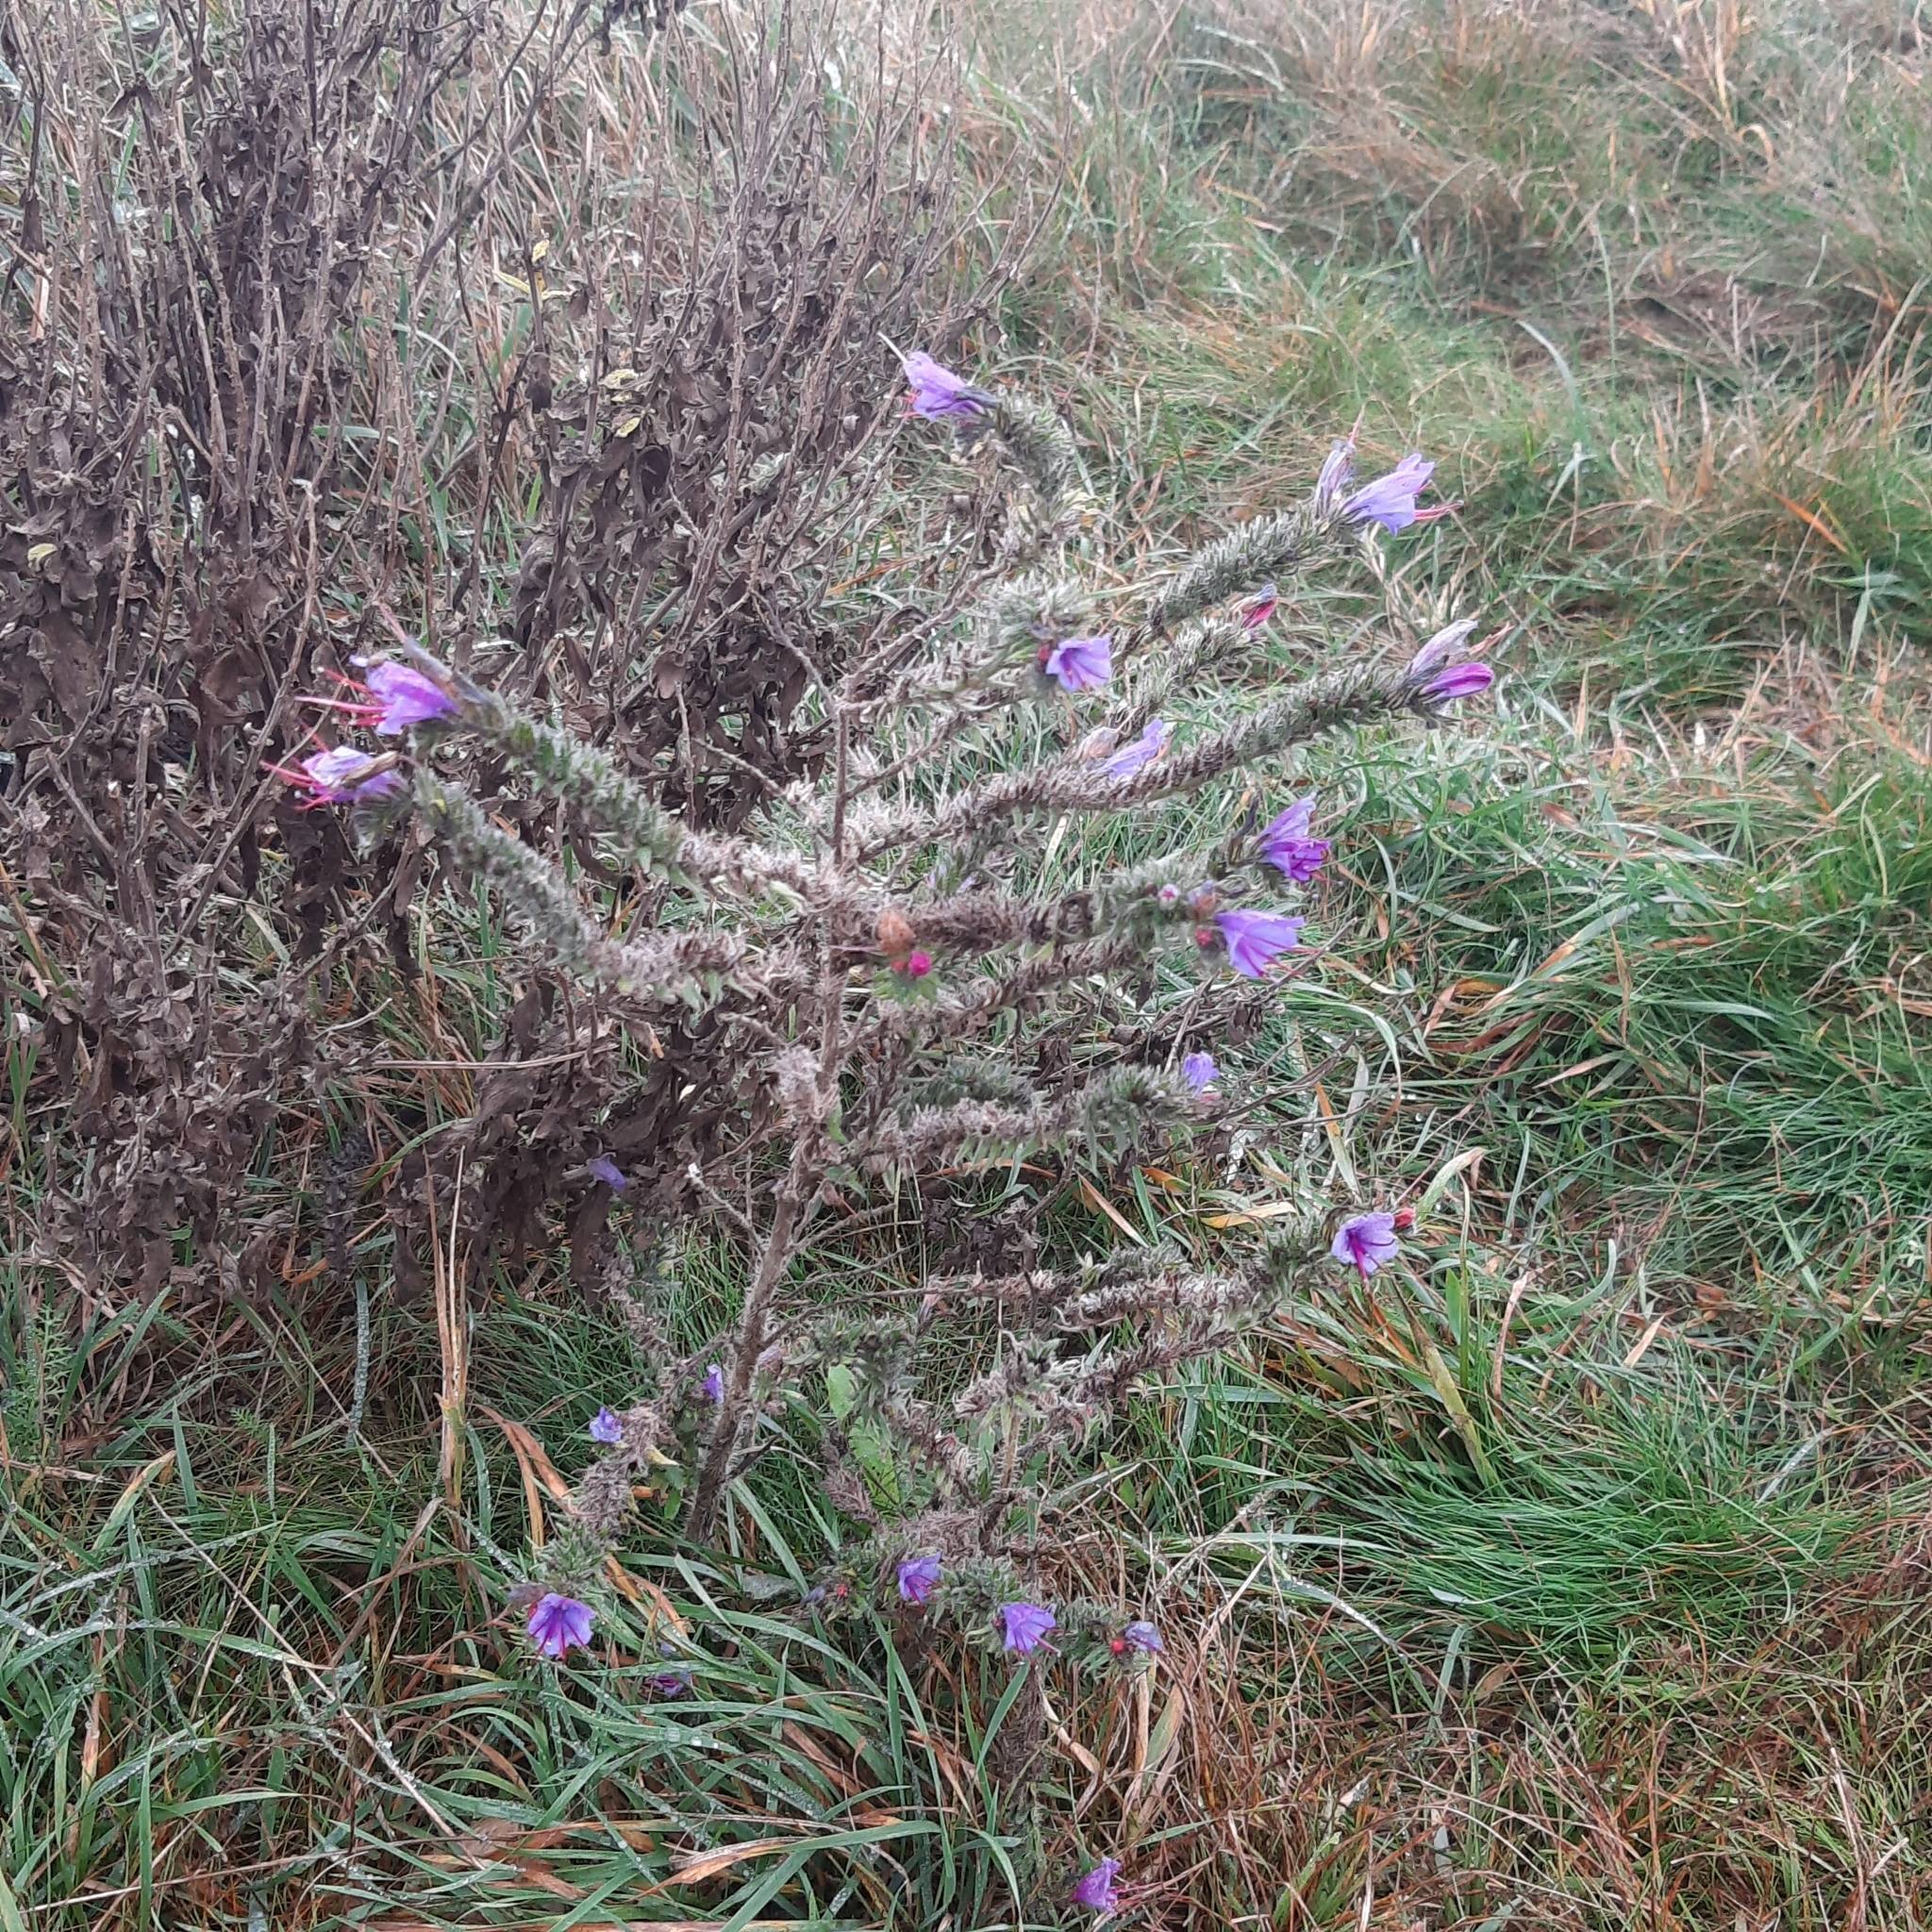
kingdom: Plantae
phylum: Tracheophyta
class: Magnoliopsida
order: Boraginales
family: Boraginaceae
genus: Echium
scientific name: Echium vulgare
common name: Common viper's bugloss
